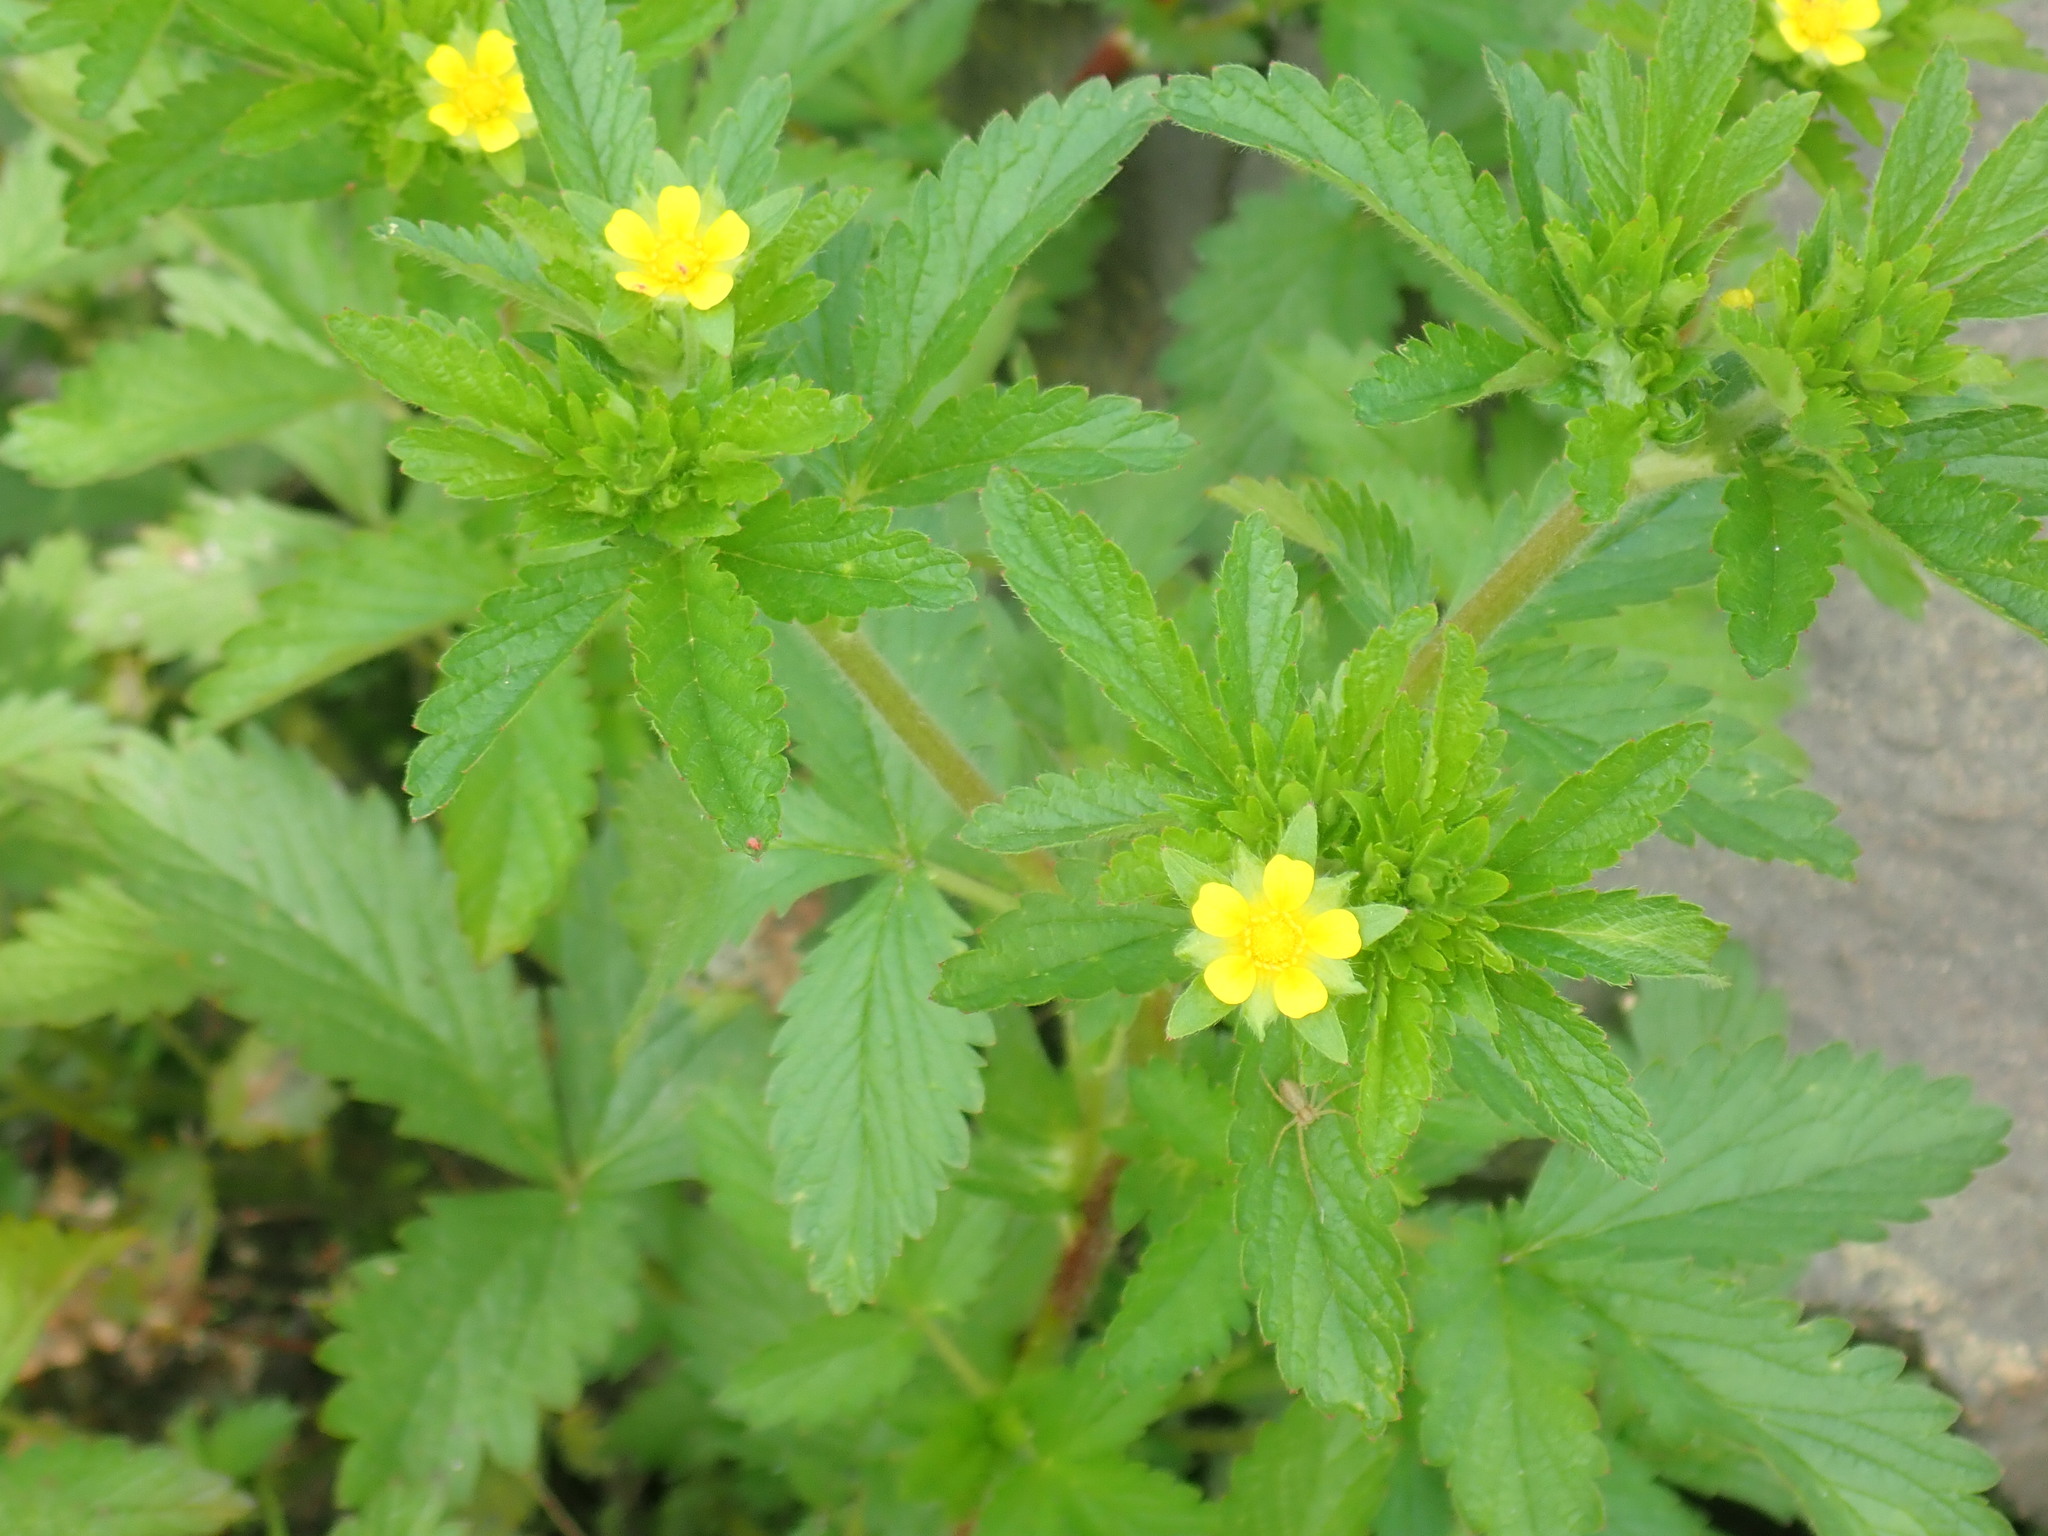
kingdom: Plantae
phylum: Tracheophyta
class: Magnoliopsida
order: Rosales
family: Rosaceae
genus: Potentilla
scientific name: Potentilla norvegica
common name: Ternate-leaved cinquefoil
